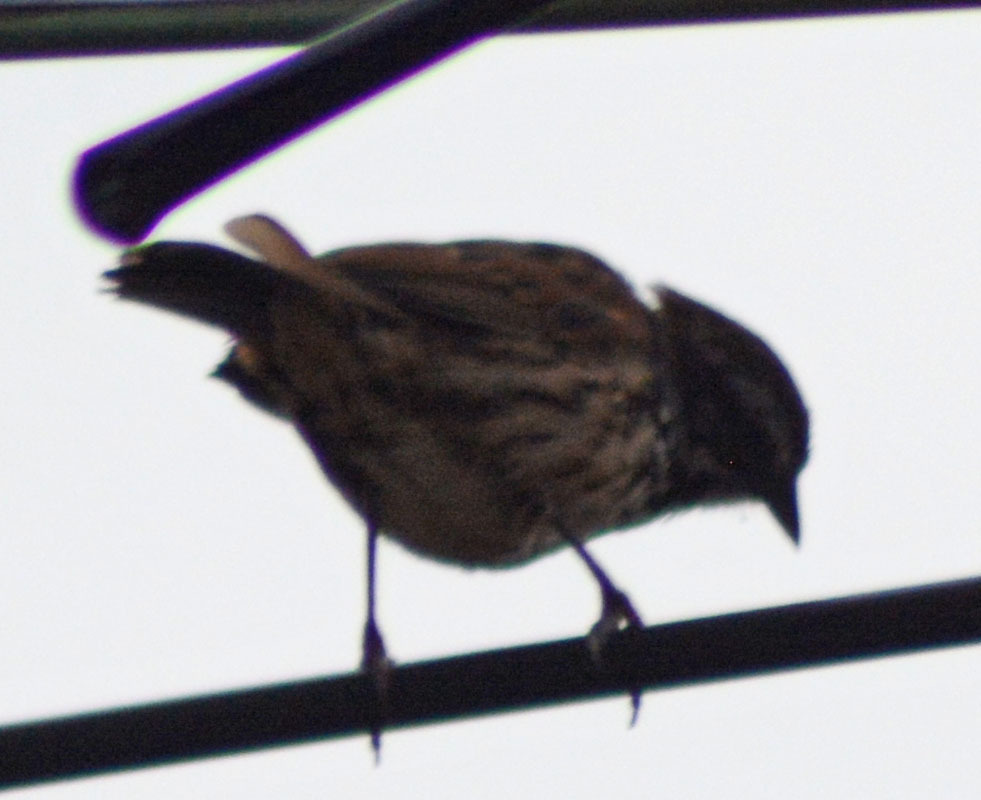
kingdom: Animalia
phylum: Chordata
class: Aves
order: Passeriformes
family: Passerellidae
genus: Melospiza
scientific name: Melospiza melodia
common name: Song sparrow
